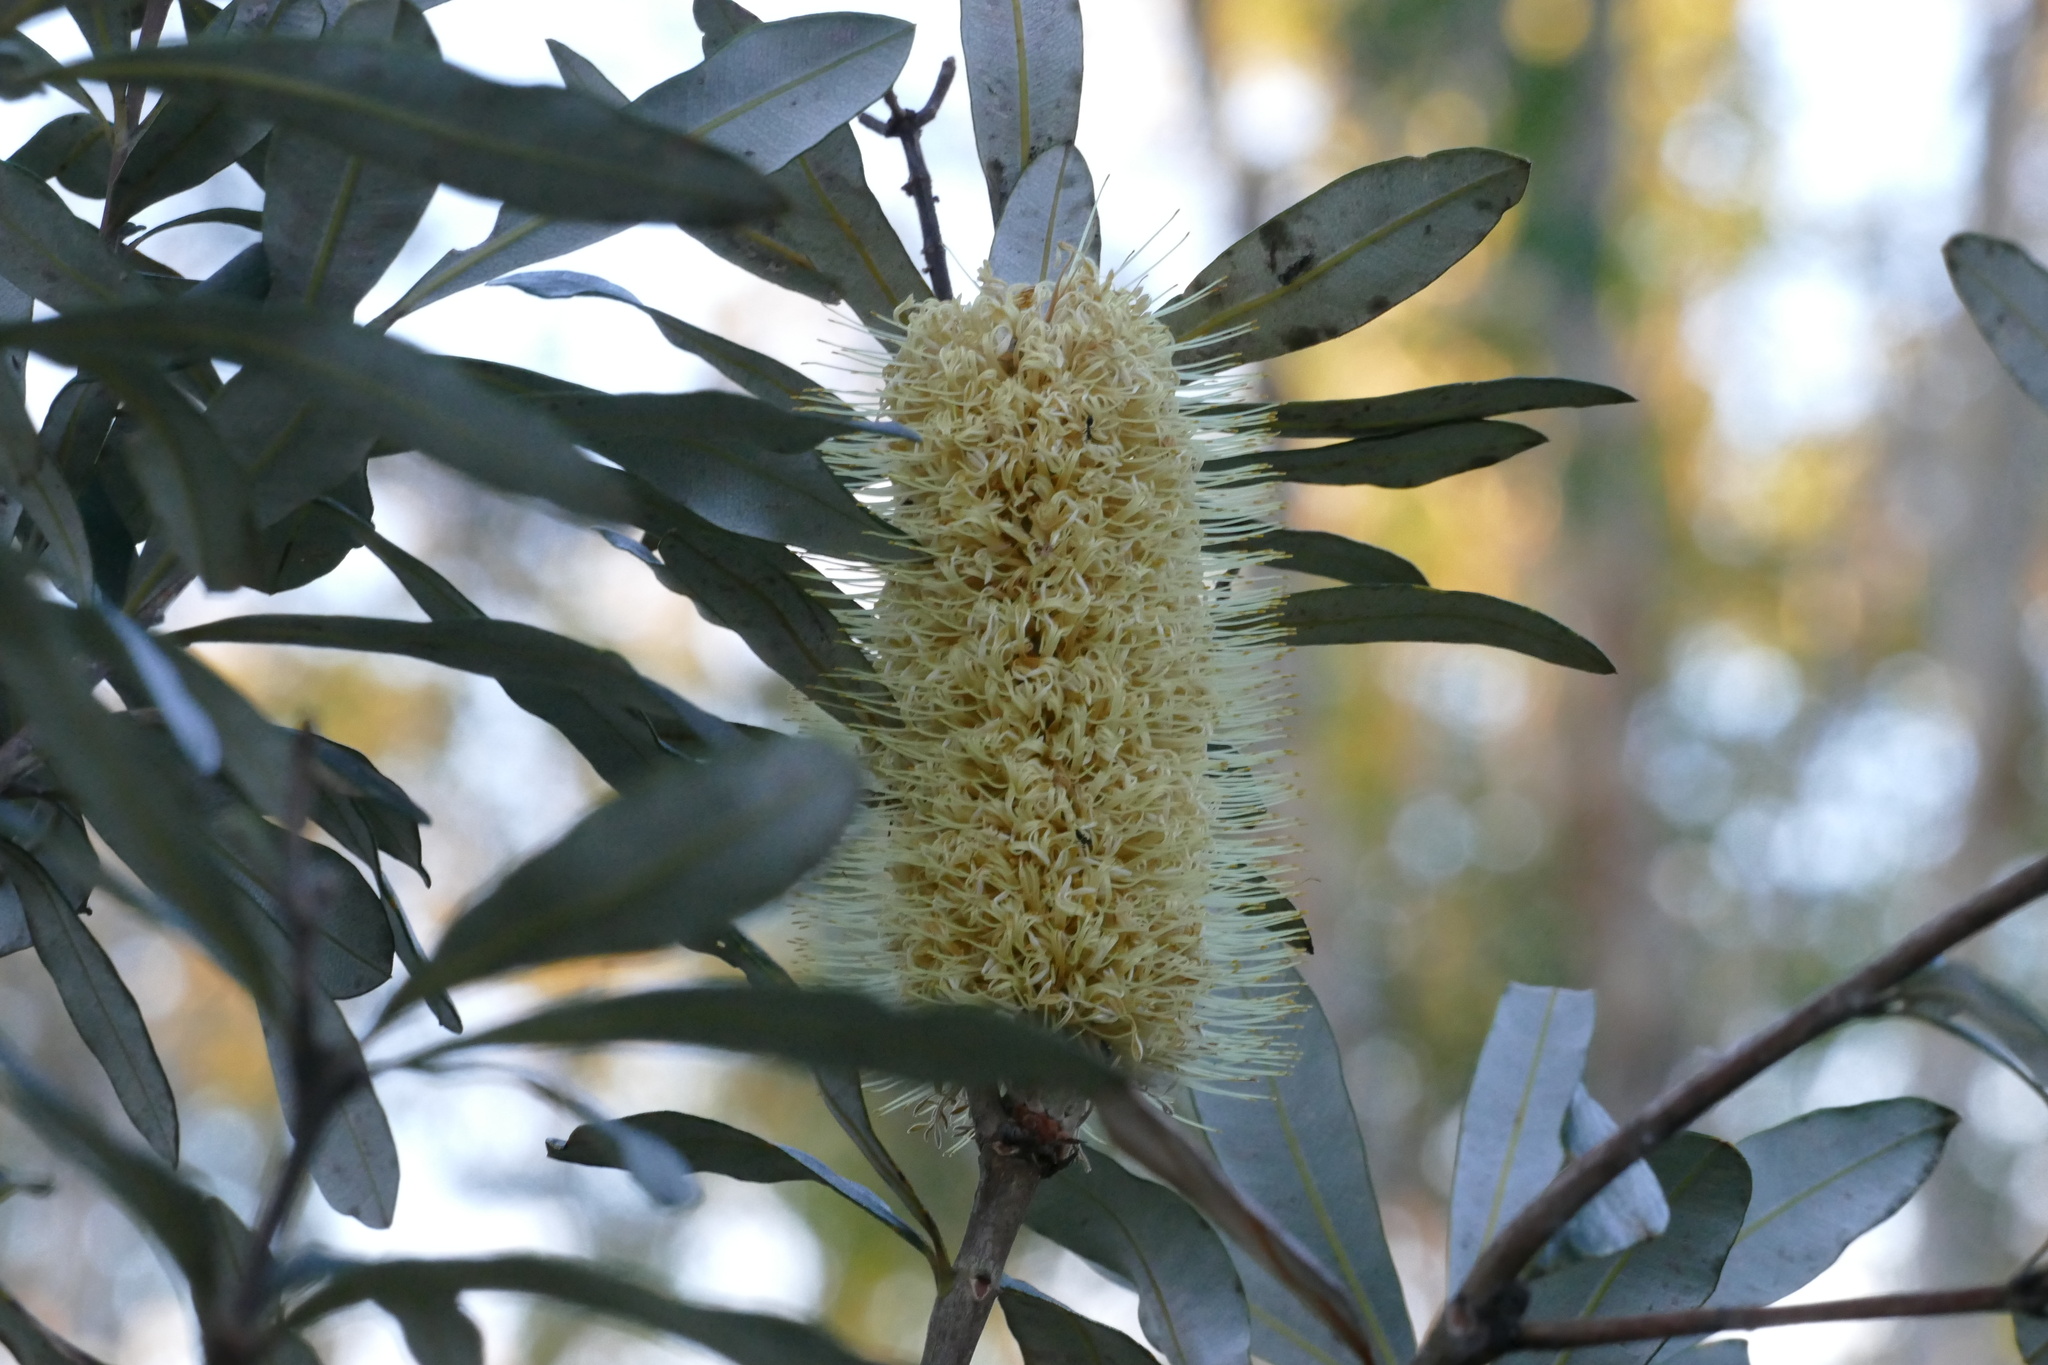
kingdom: Plantae
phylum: Tracheophyta
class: Magnoliopsida
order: Proteales
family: Proteaceae
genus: Banksia
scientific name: Banksia integrifolia
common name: White-honeysuckle
